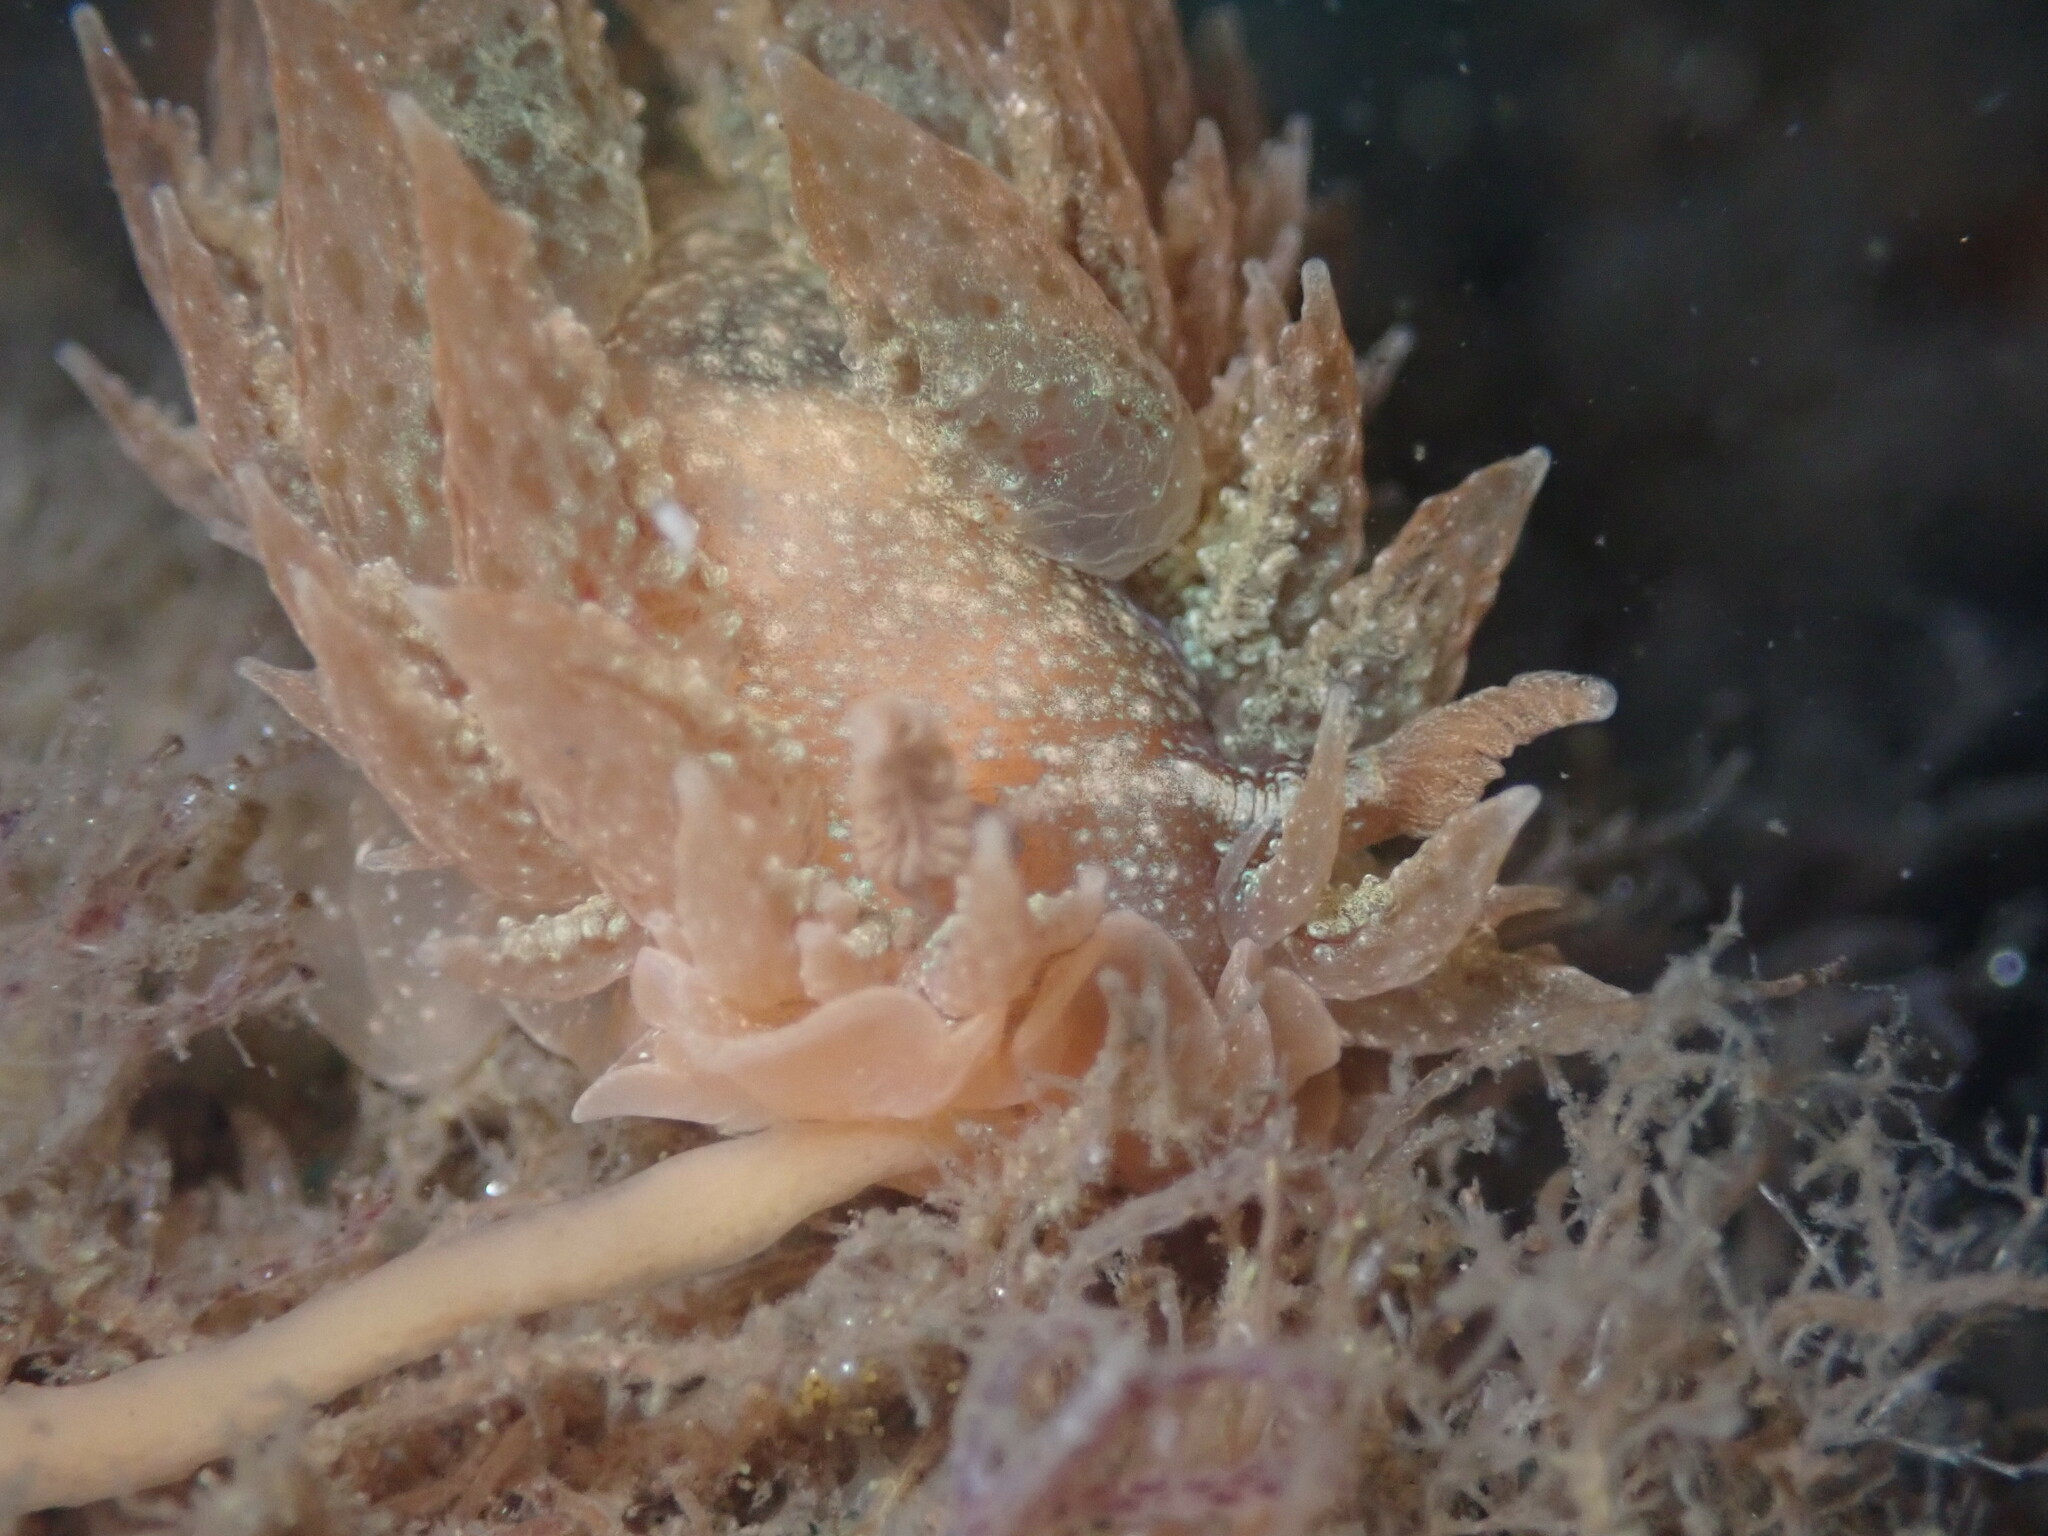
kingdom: Animalia
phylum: Mollusca
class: Gastropoda
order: Nudibranchia
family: Dironidae
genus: Dirona
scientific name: Dirona picta
